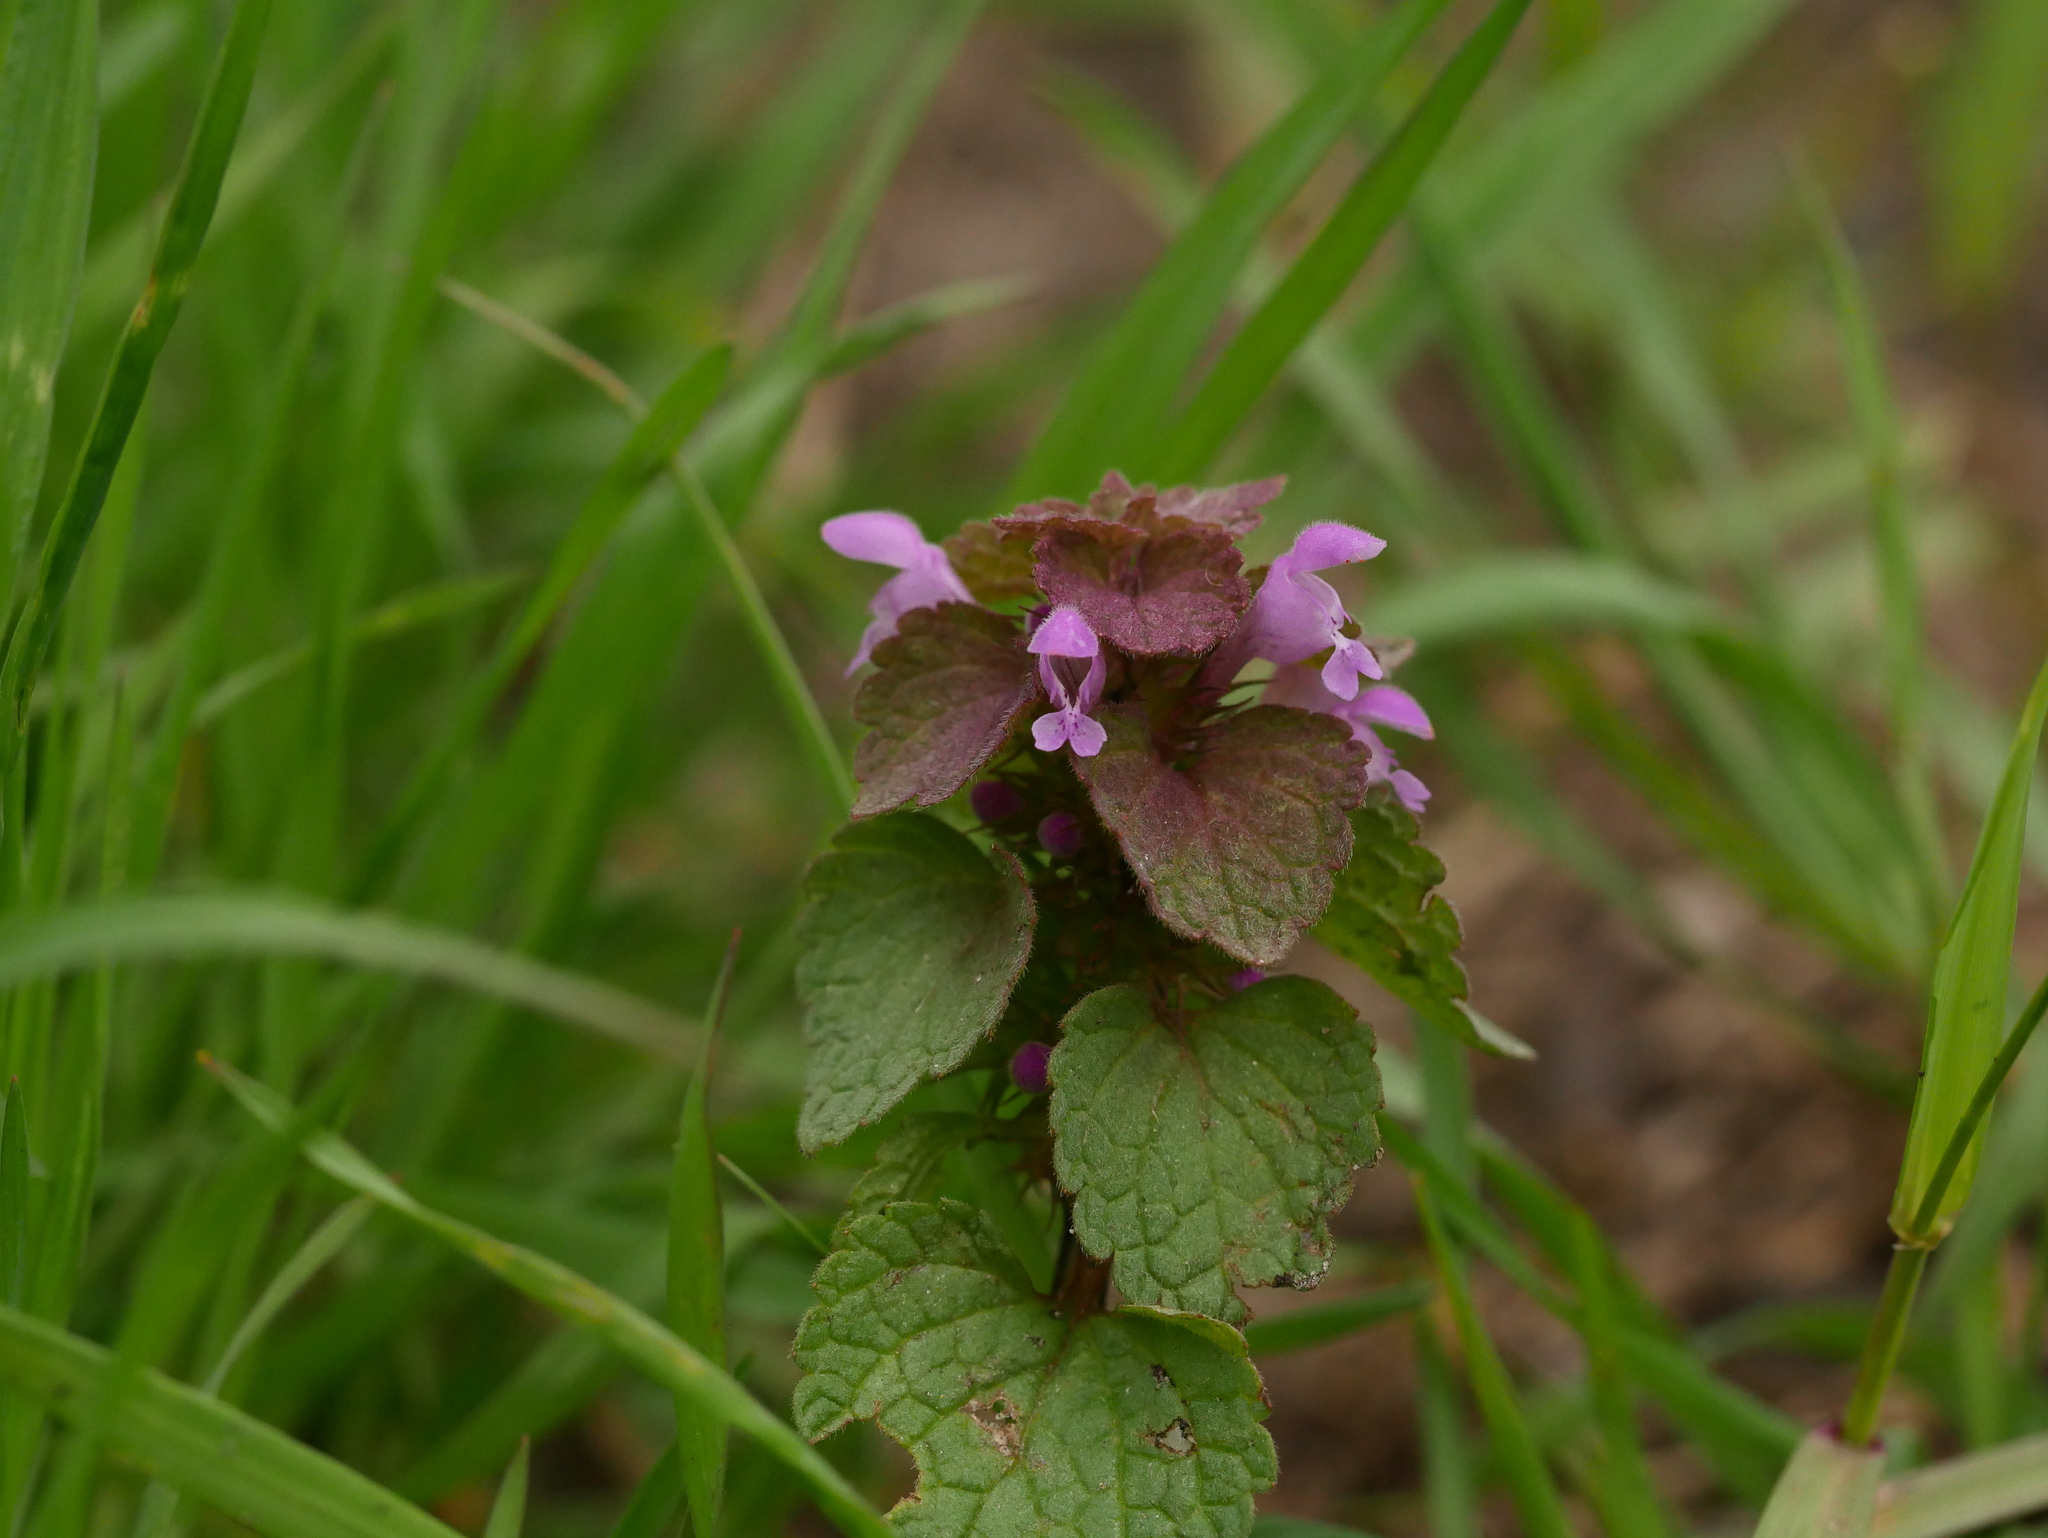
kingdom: Plantae
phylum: Tracheophyta
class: Magnoliopsida
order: Lamiales
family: Lamiaceae
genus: Lamium
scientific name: Lamium purpureum
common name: Red dead-nettle
